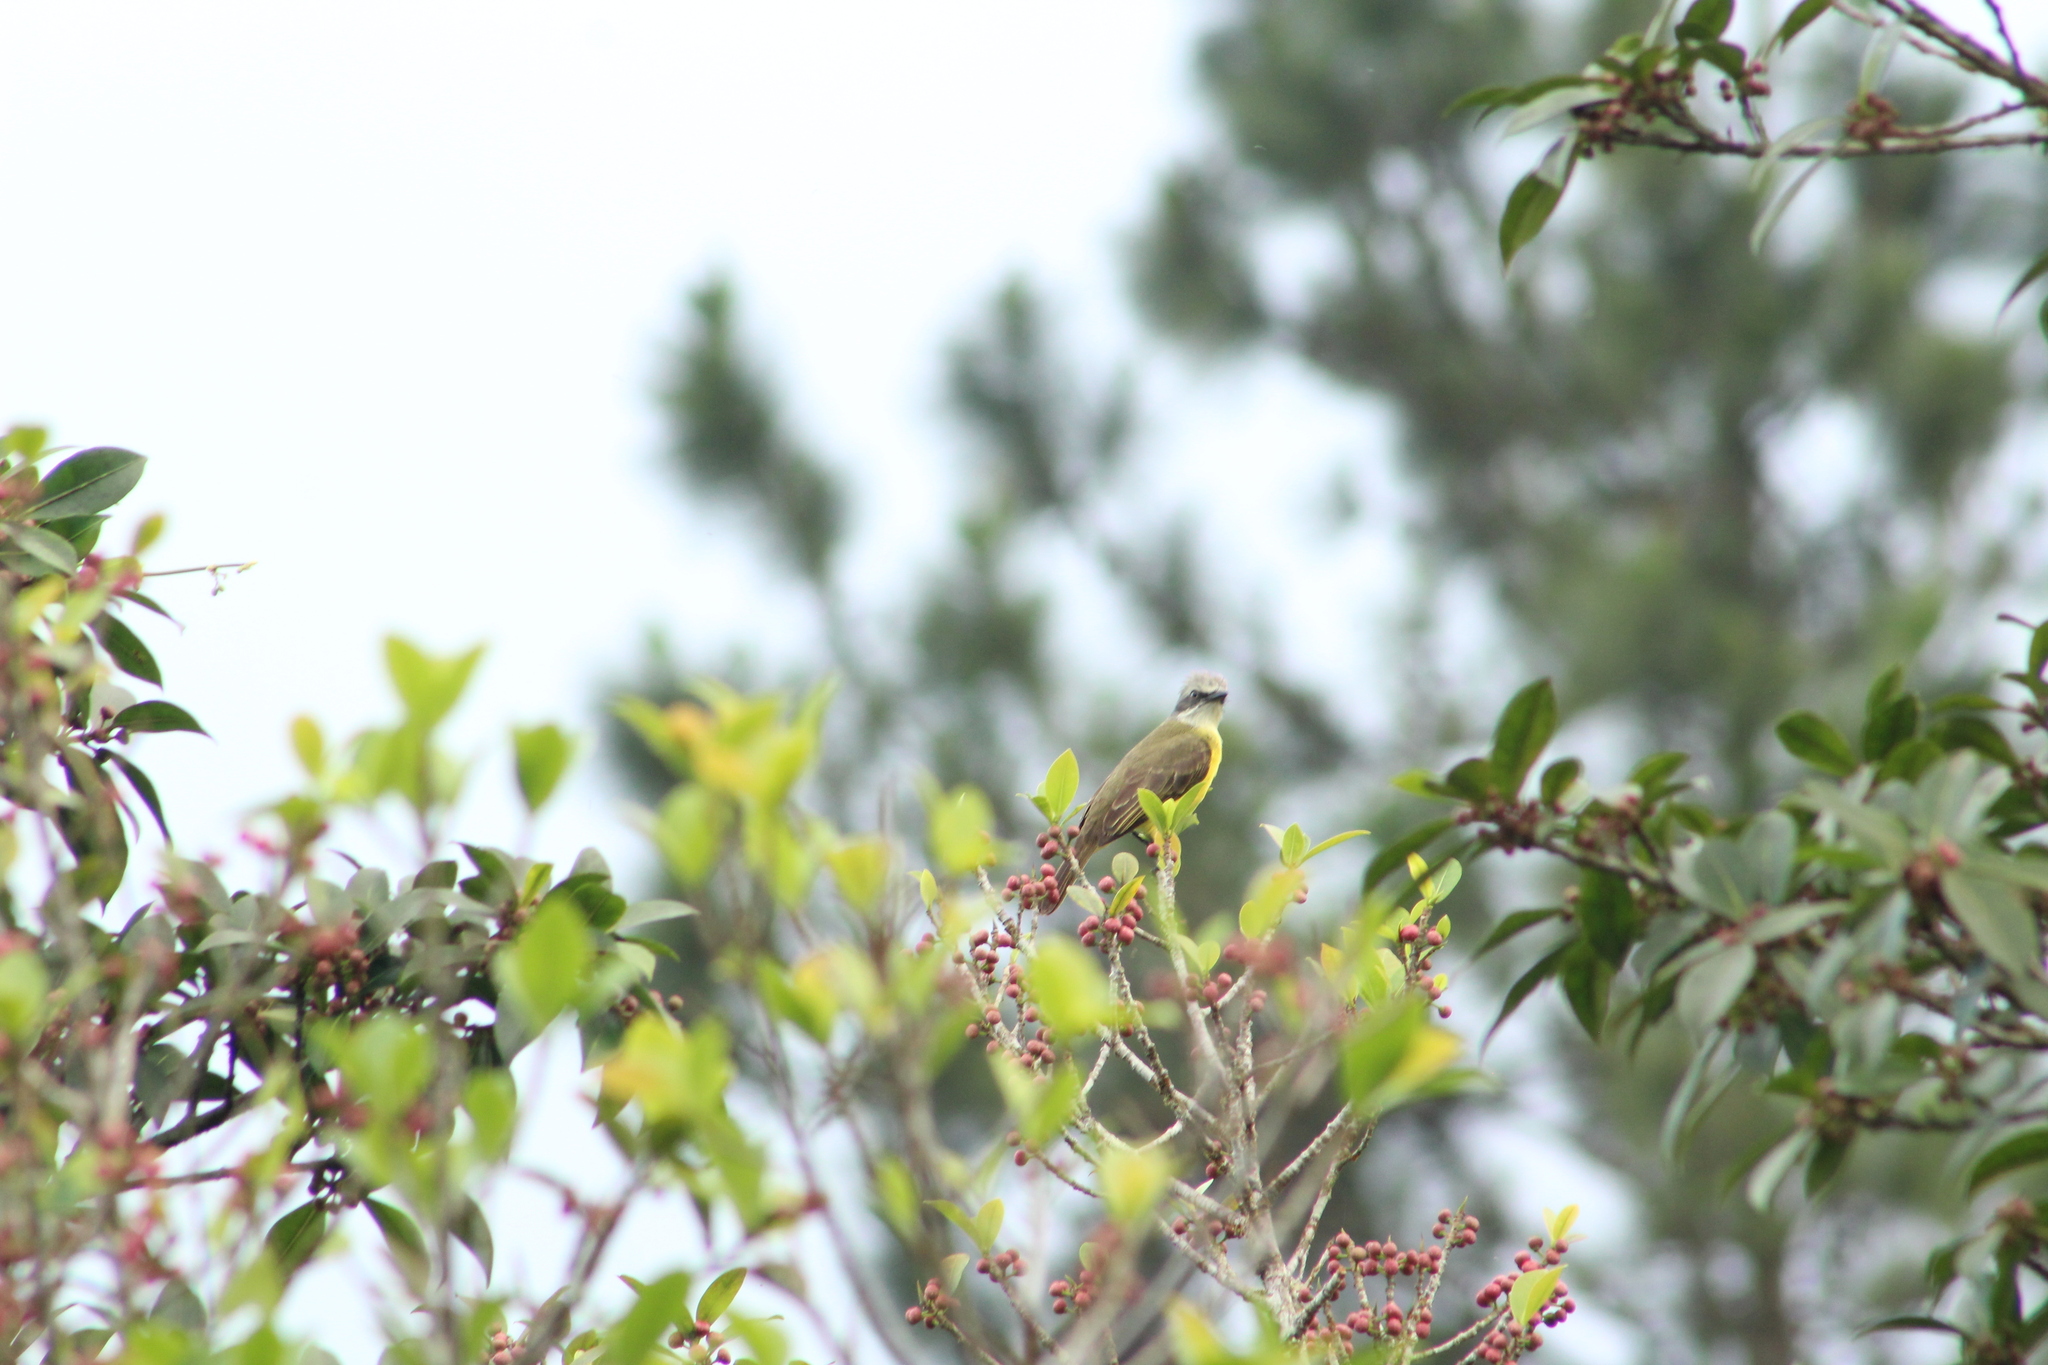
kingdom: Animalia
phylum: Chordata
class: Aves
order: Passeriformes
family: Tyrannidae
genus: Myiozetetes
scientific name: Myiozetetes granadensis
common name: Gray-capped flycatcher
